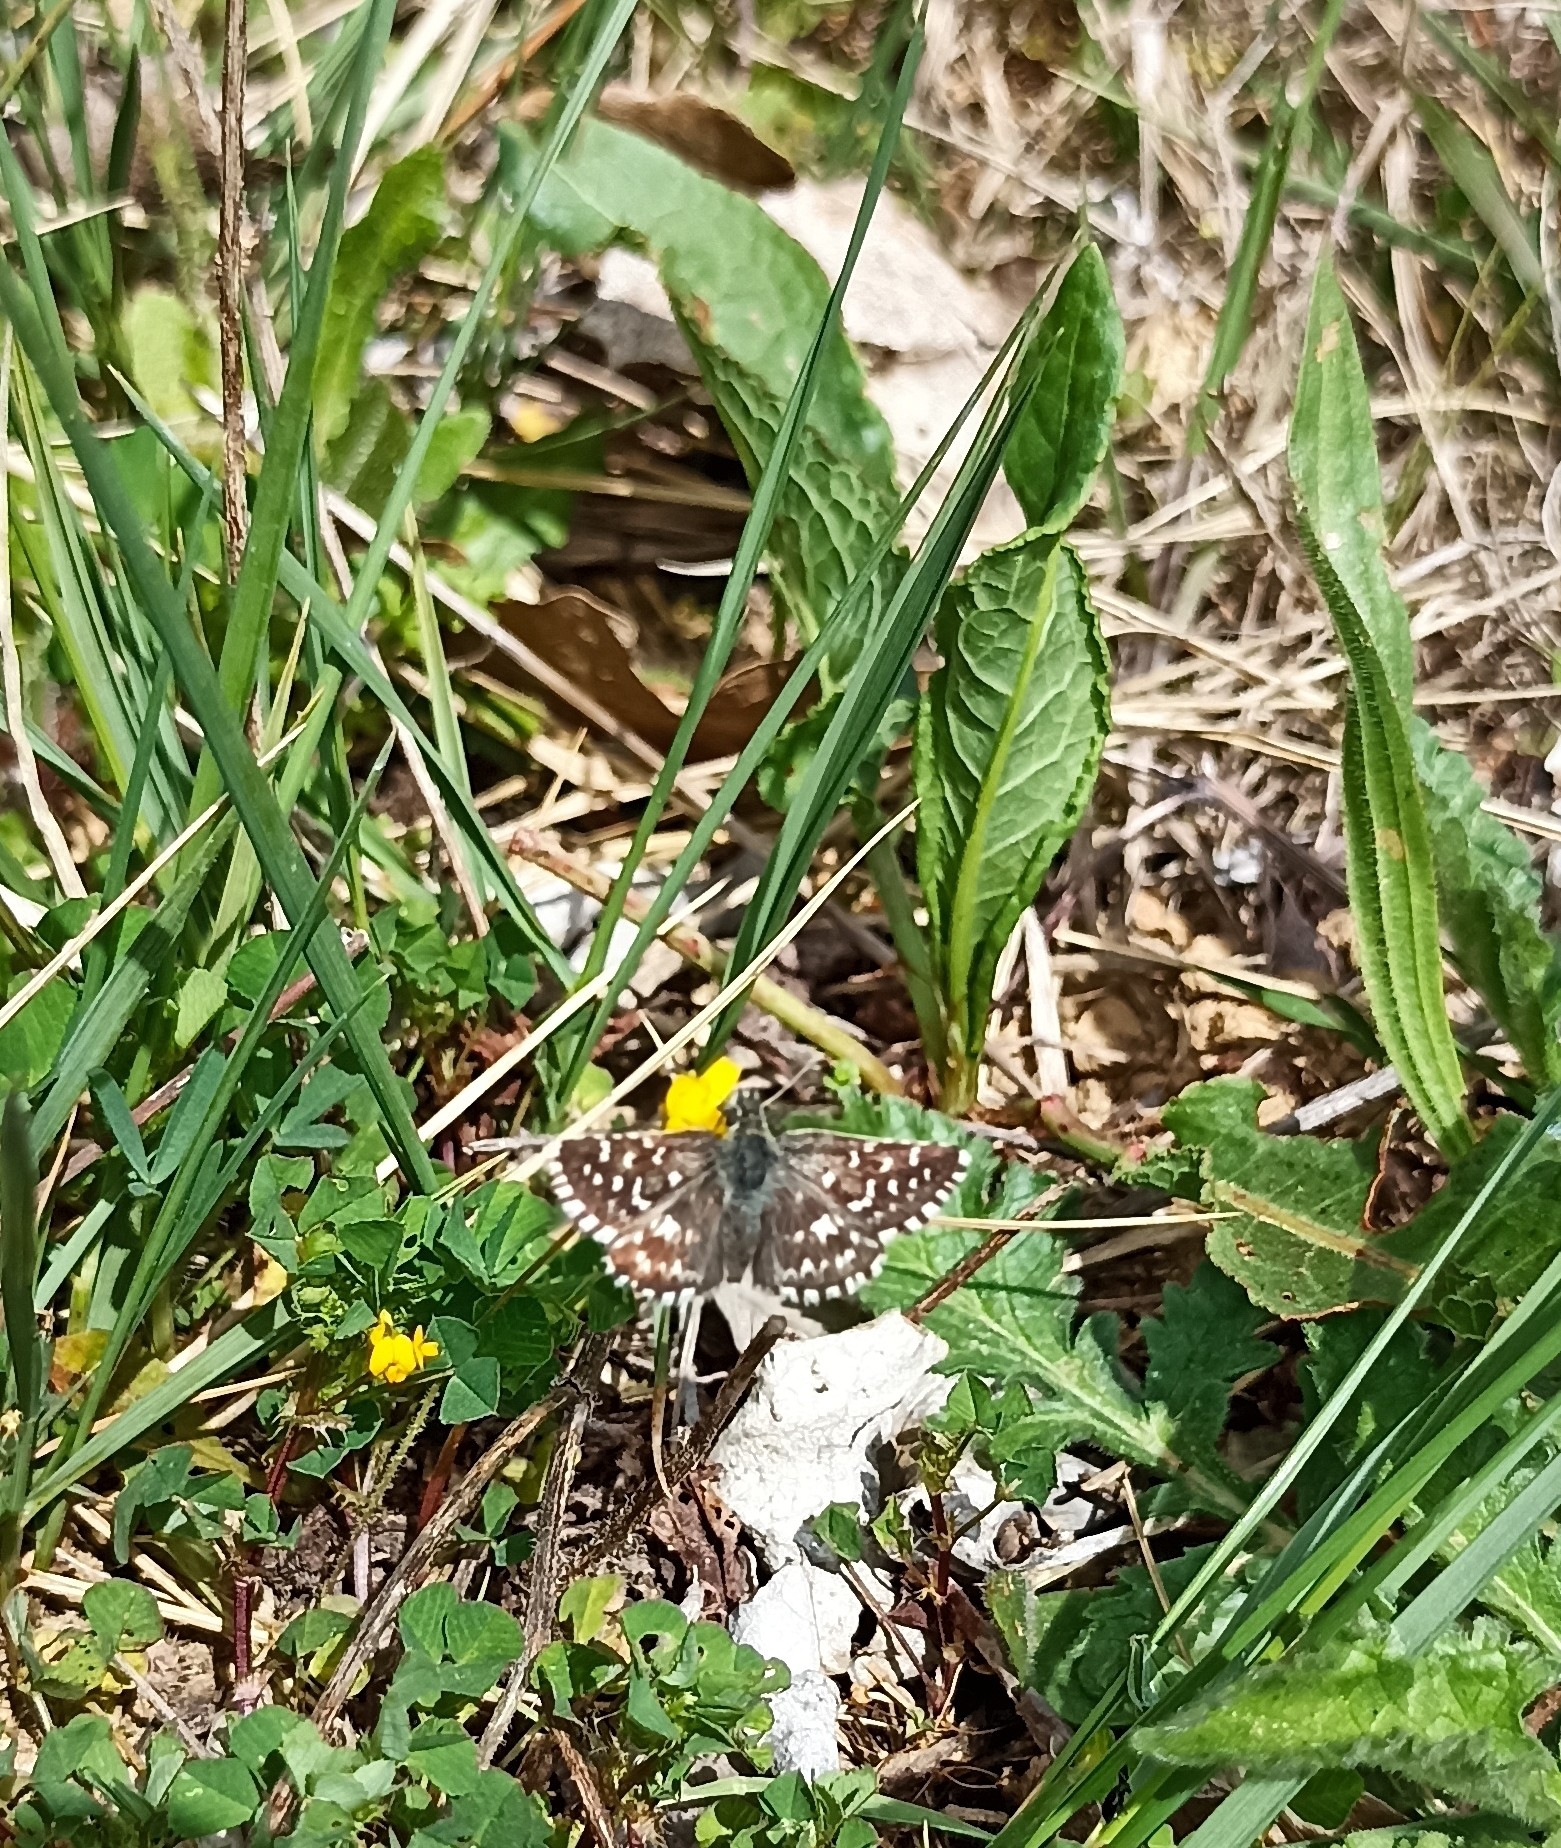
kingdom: Animalia
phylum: Arthropoda
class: Insecta
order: Lepidoptera
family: Hesperiidae
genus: Pyrgus
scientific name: Pyrgus malvoides
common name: Southern grizzled skipper
